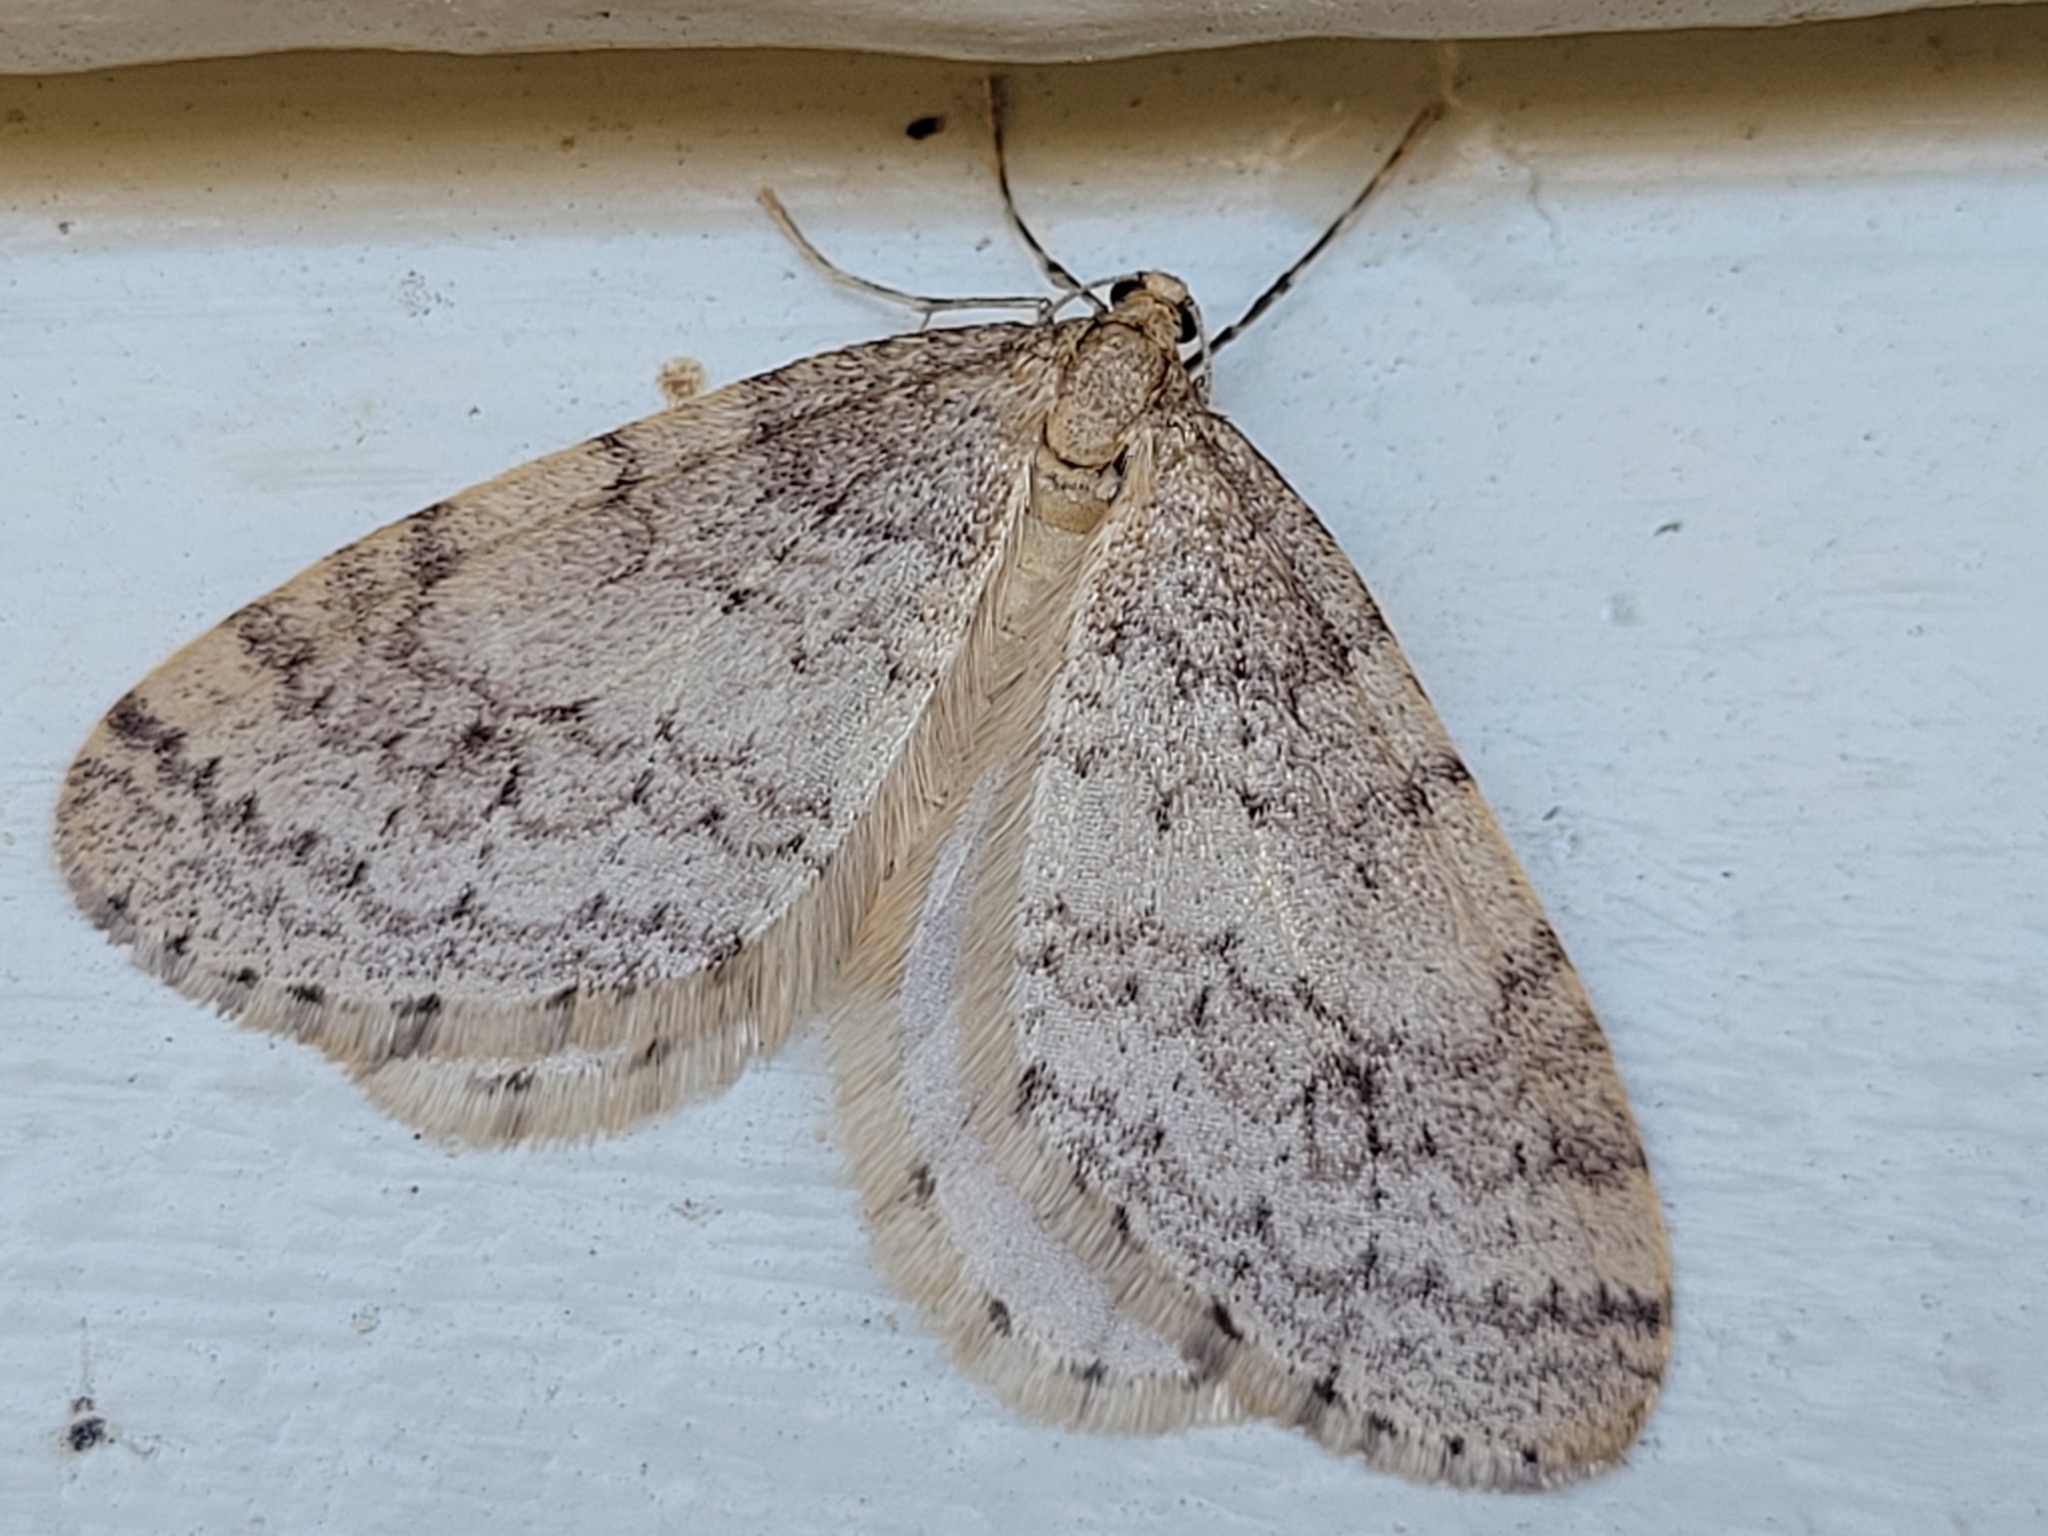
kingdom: Animalia
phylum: Arthropoda
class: Insecta
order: Lepidoptera
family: Geometridae
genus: Operophtera
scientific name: Operophtera bruceata
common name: Bruce spanworm
